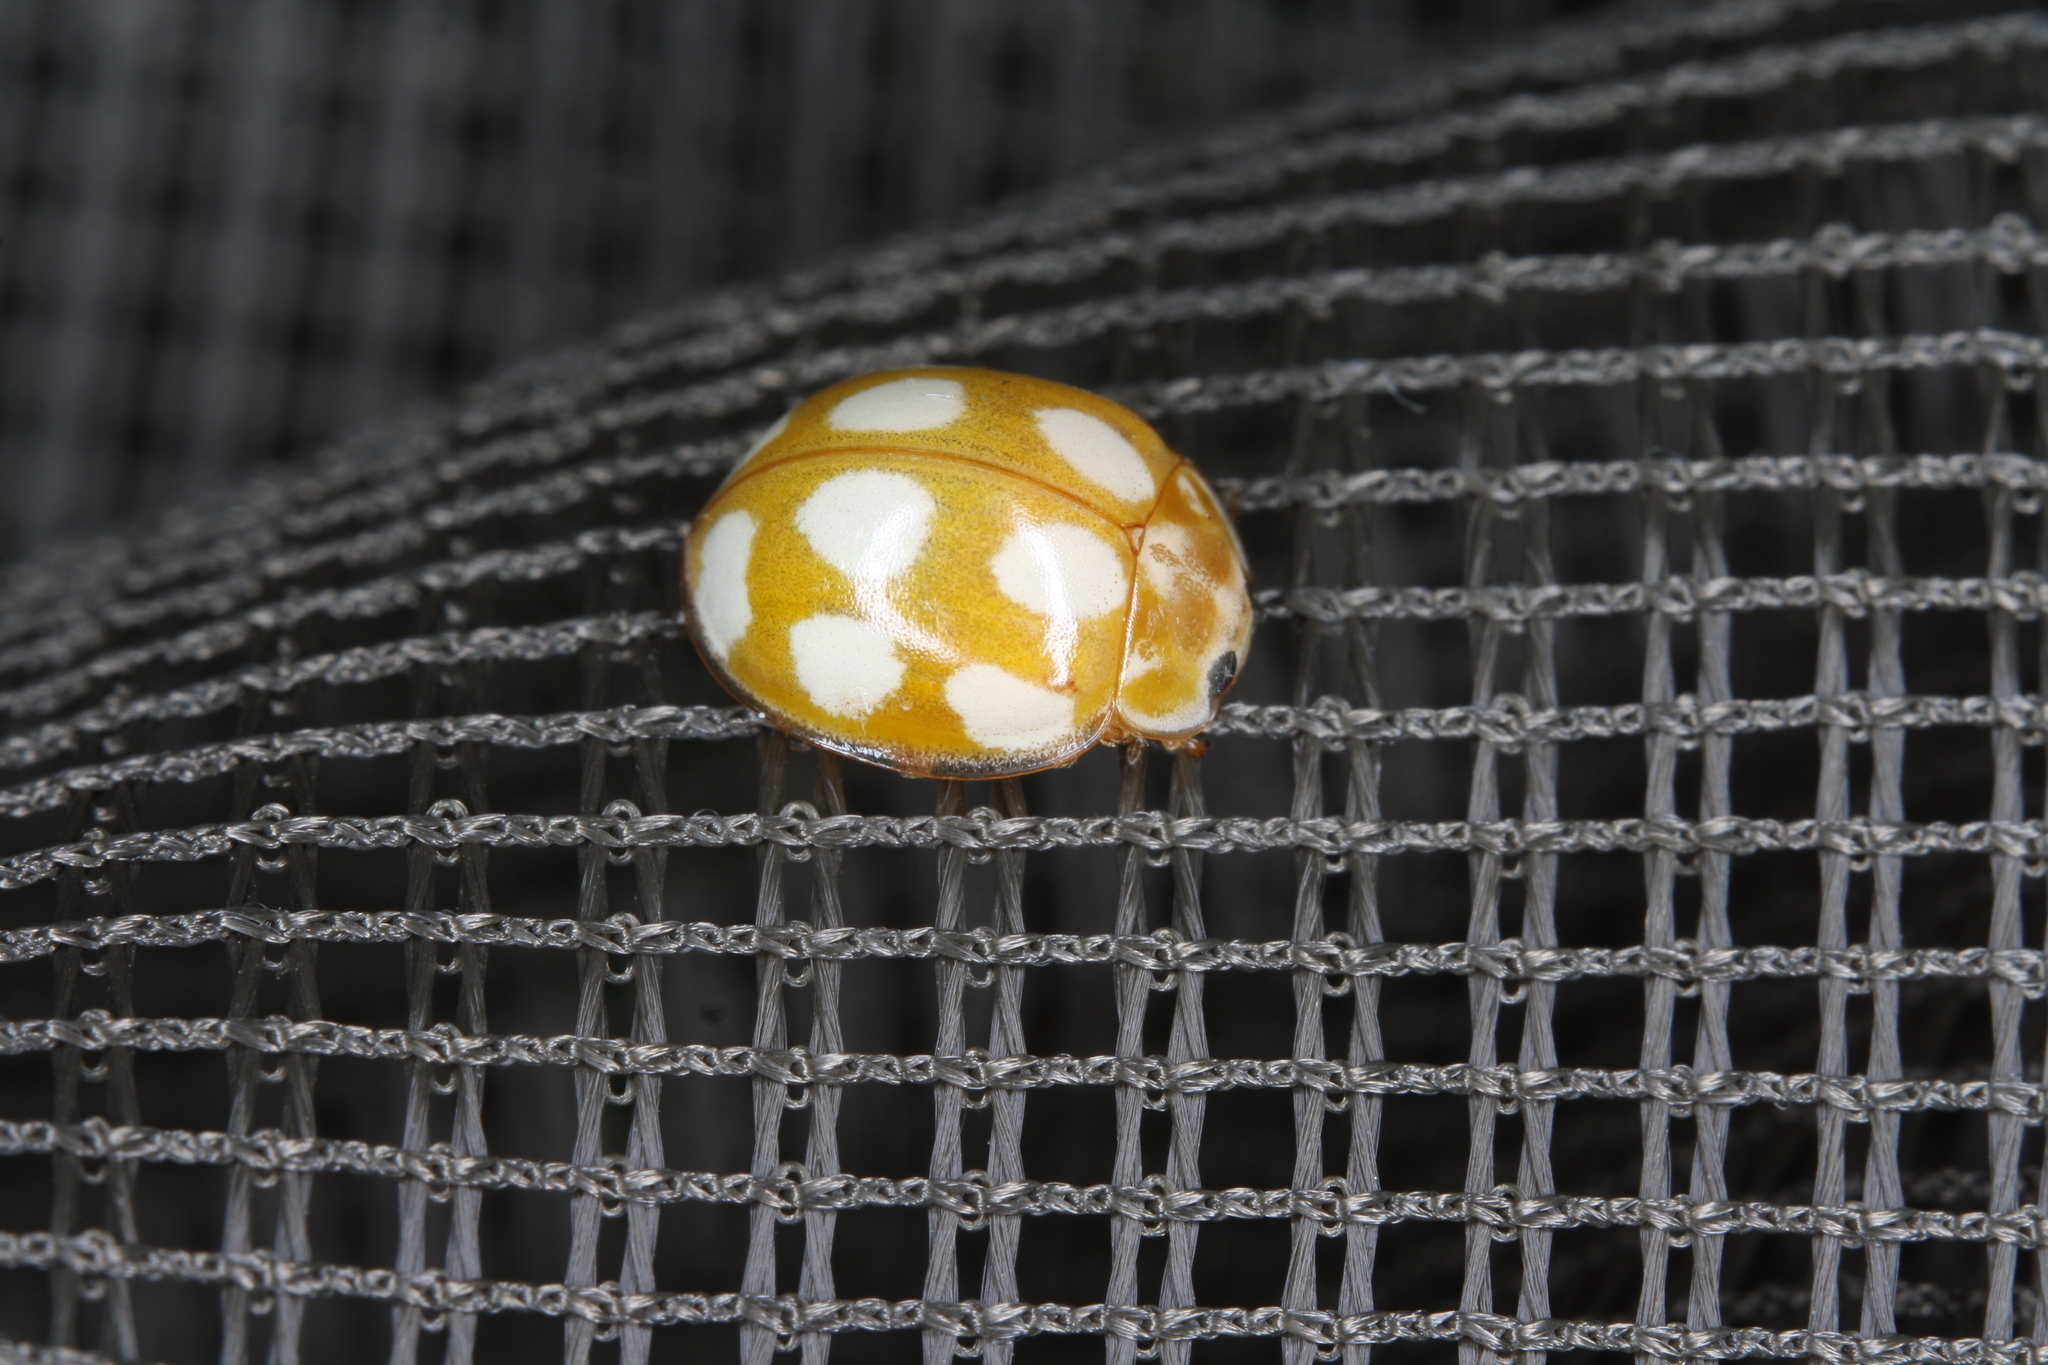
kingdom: Animalia
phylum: Arthropoda
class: Insecta
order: Coleoptera
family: Coccinellidae
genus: Calvia
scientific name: Calvia decemguttata
